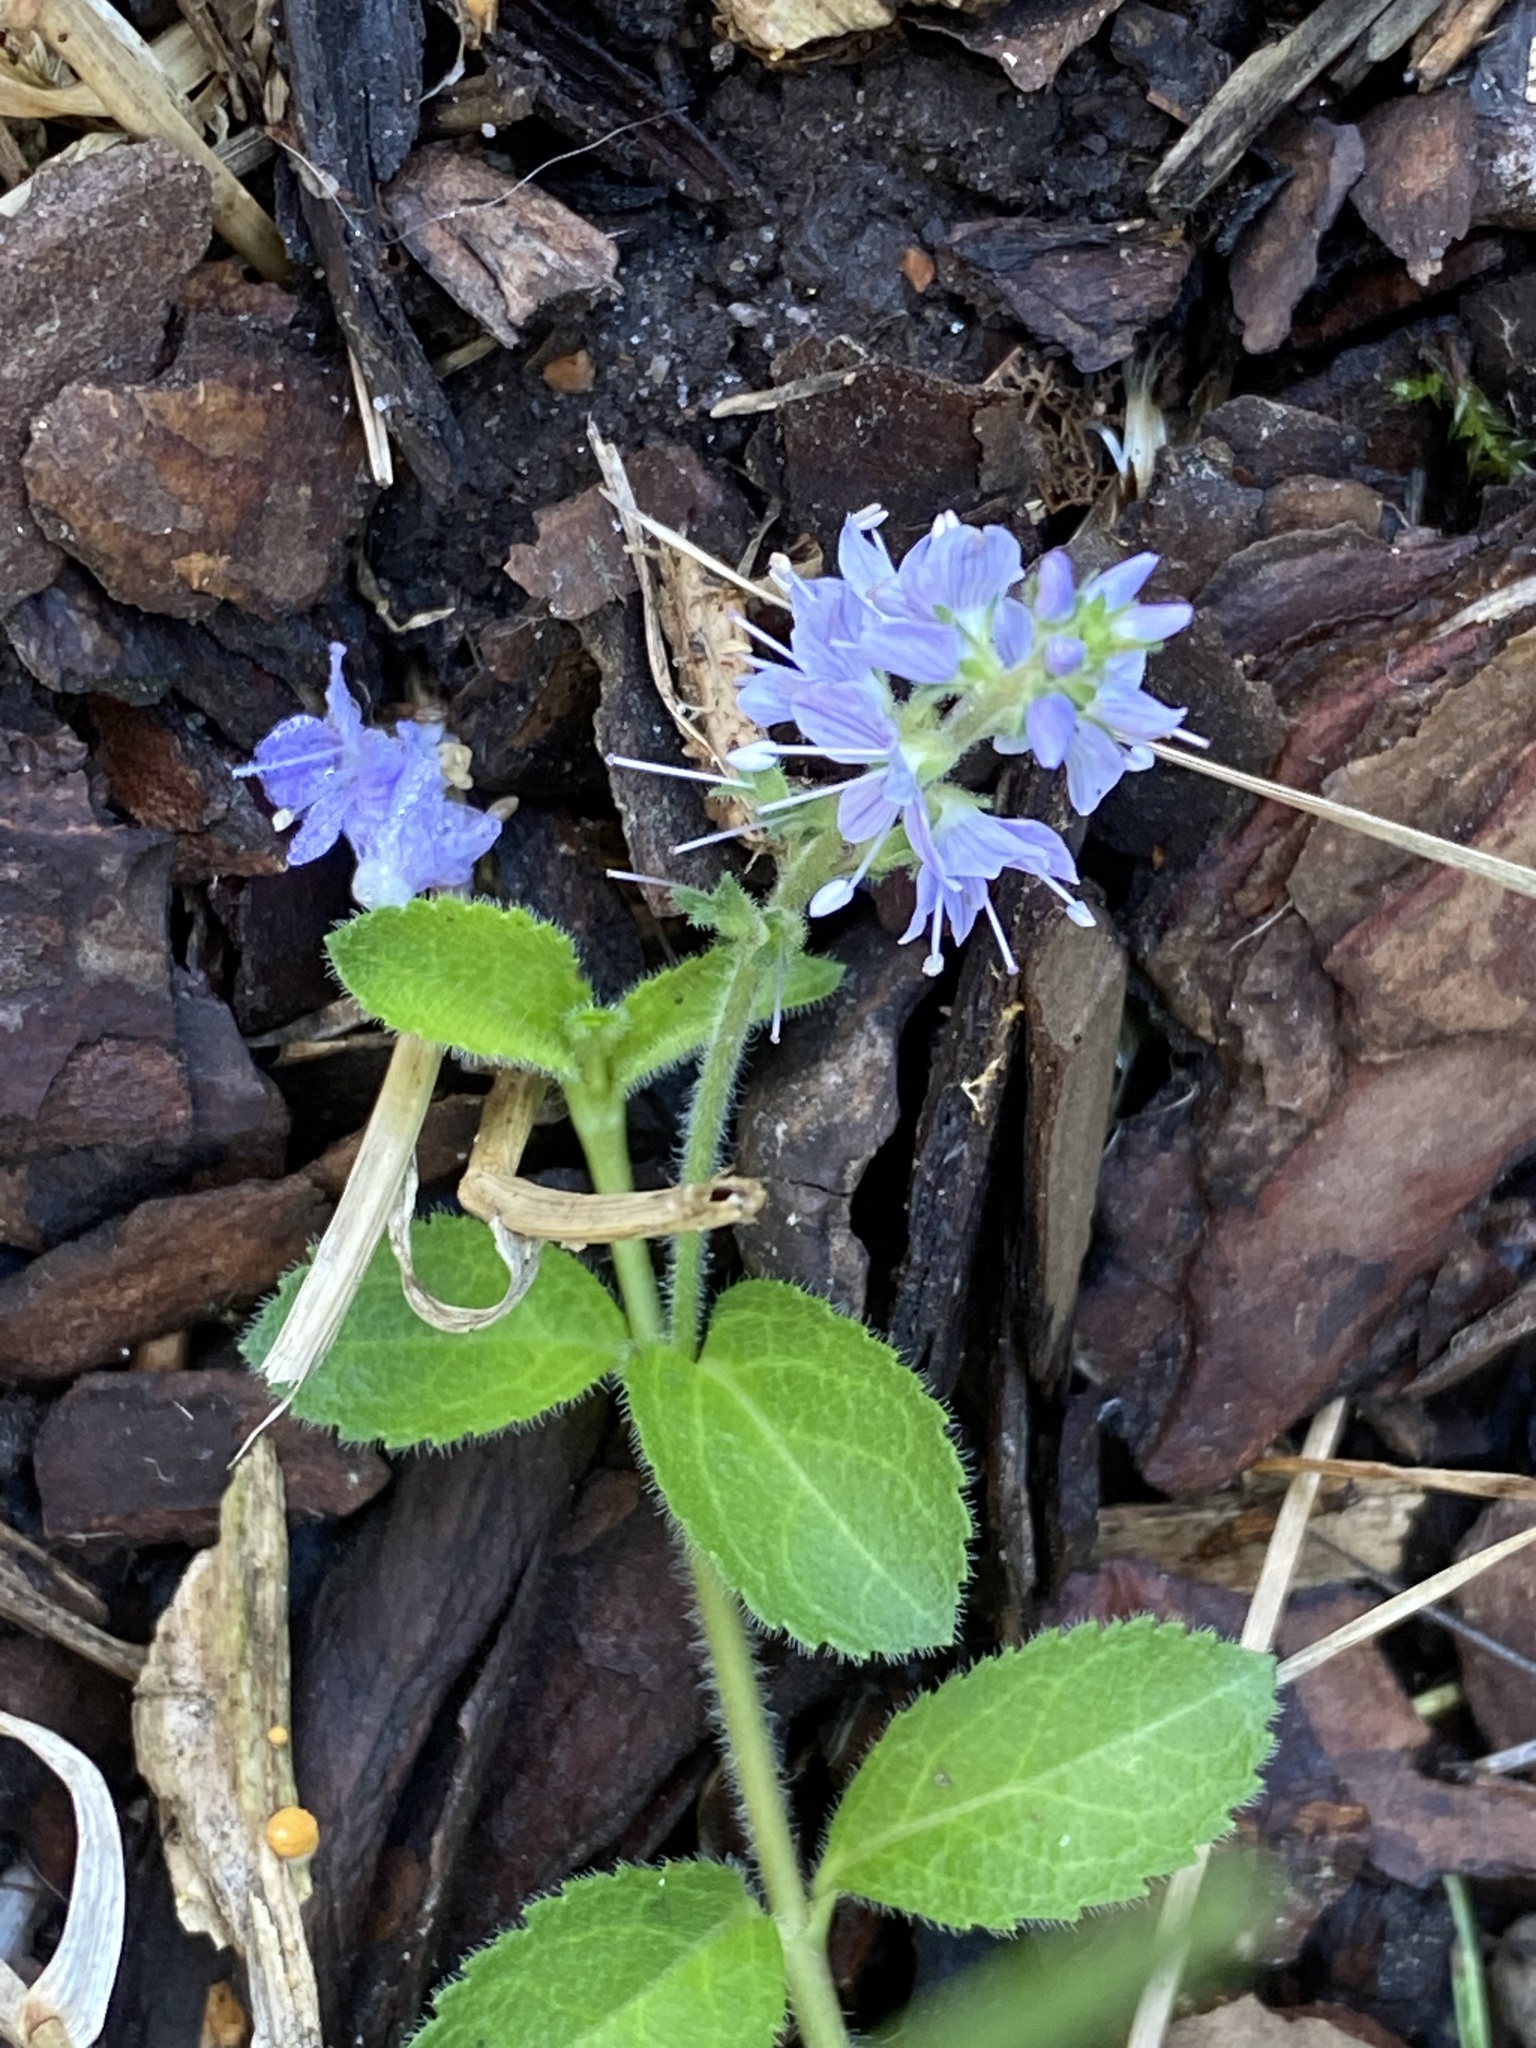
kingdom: Plantae
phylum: Tracheophyta
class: Magnoliopsida
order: Lamiales
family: Plantaginaceae
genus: Veronica
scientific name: Veronica officinalis
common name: Common speedwell
